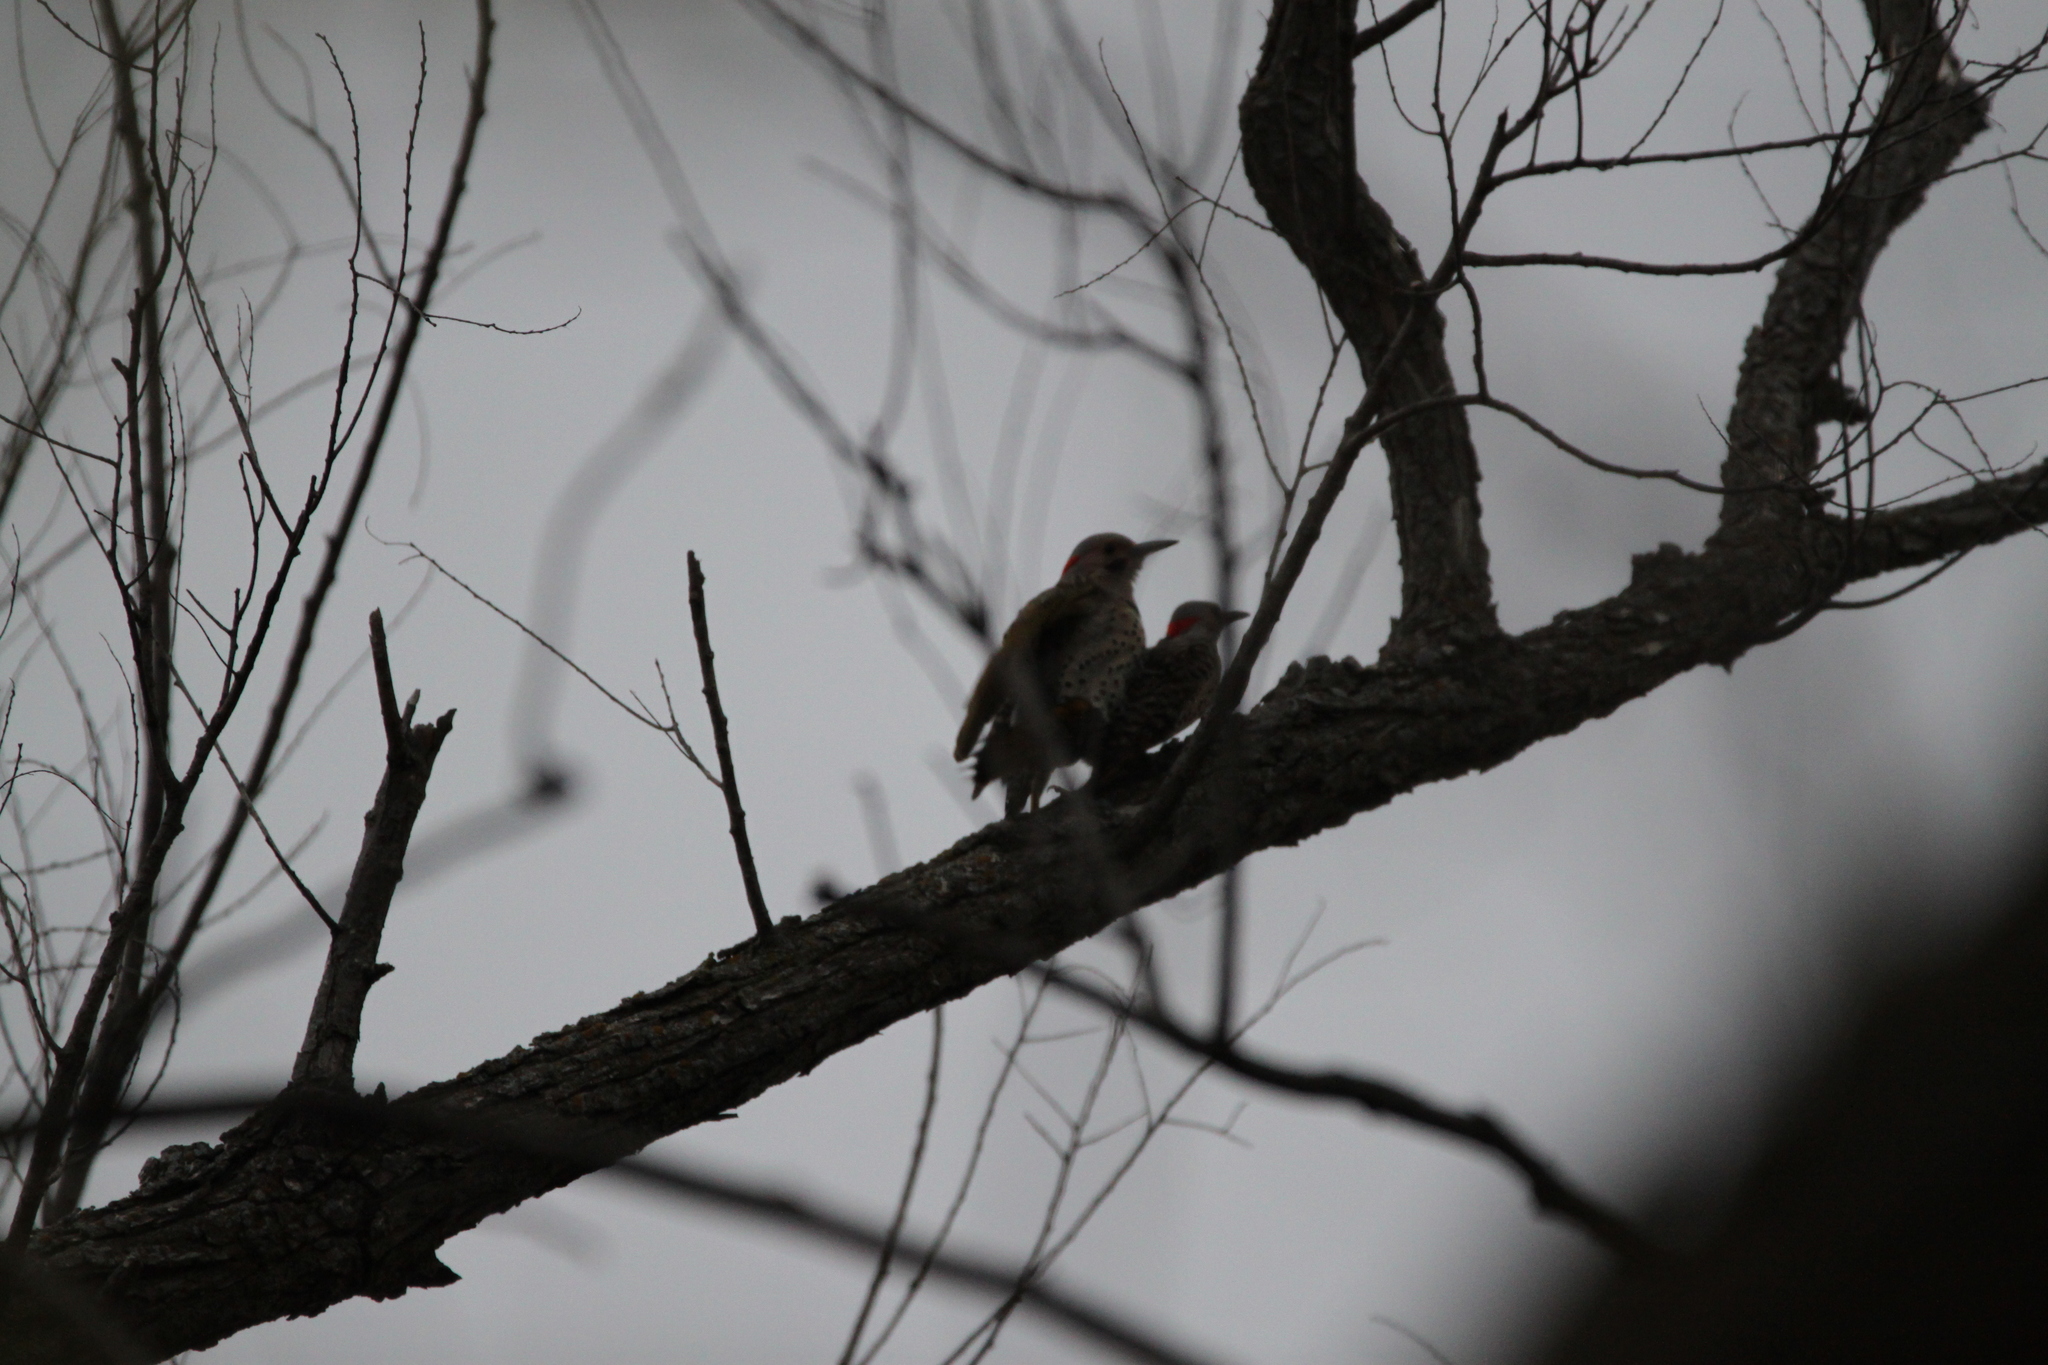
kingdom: Animalia
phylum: Chordata
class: Aves
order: Piciformes
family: Picidae
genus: Colaptes
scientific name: Colaptes auratus
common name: Northern flicker
